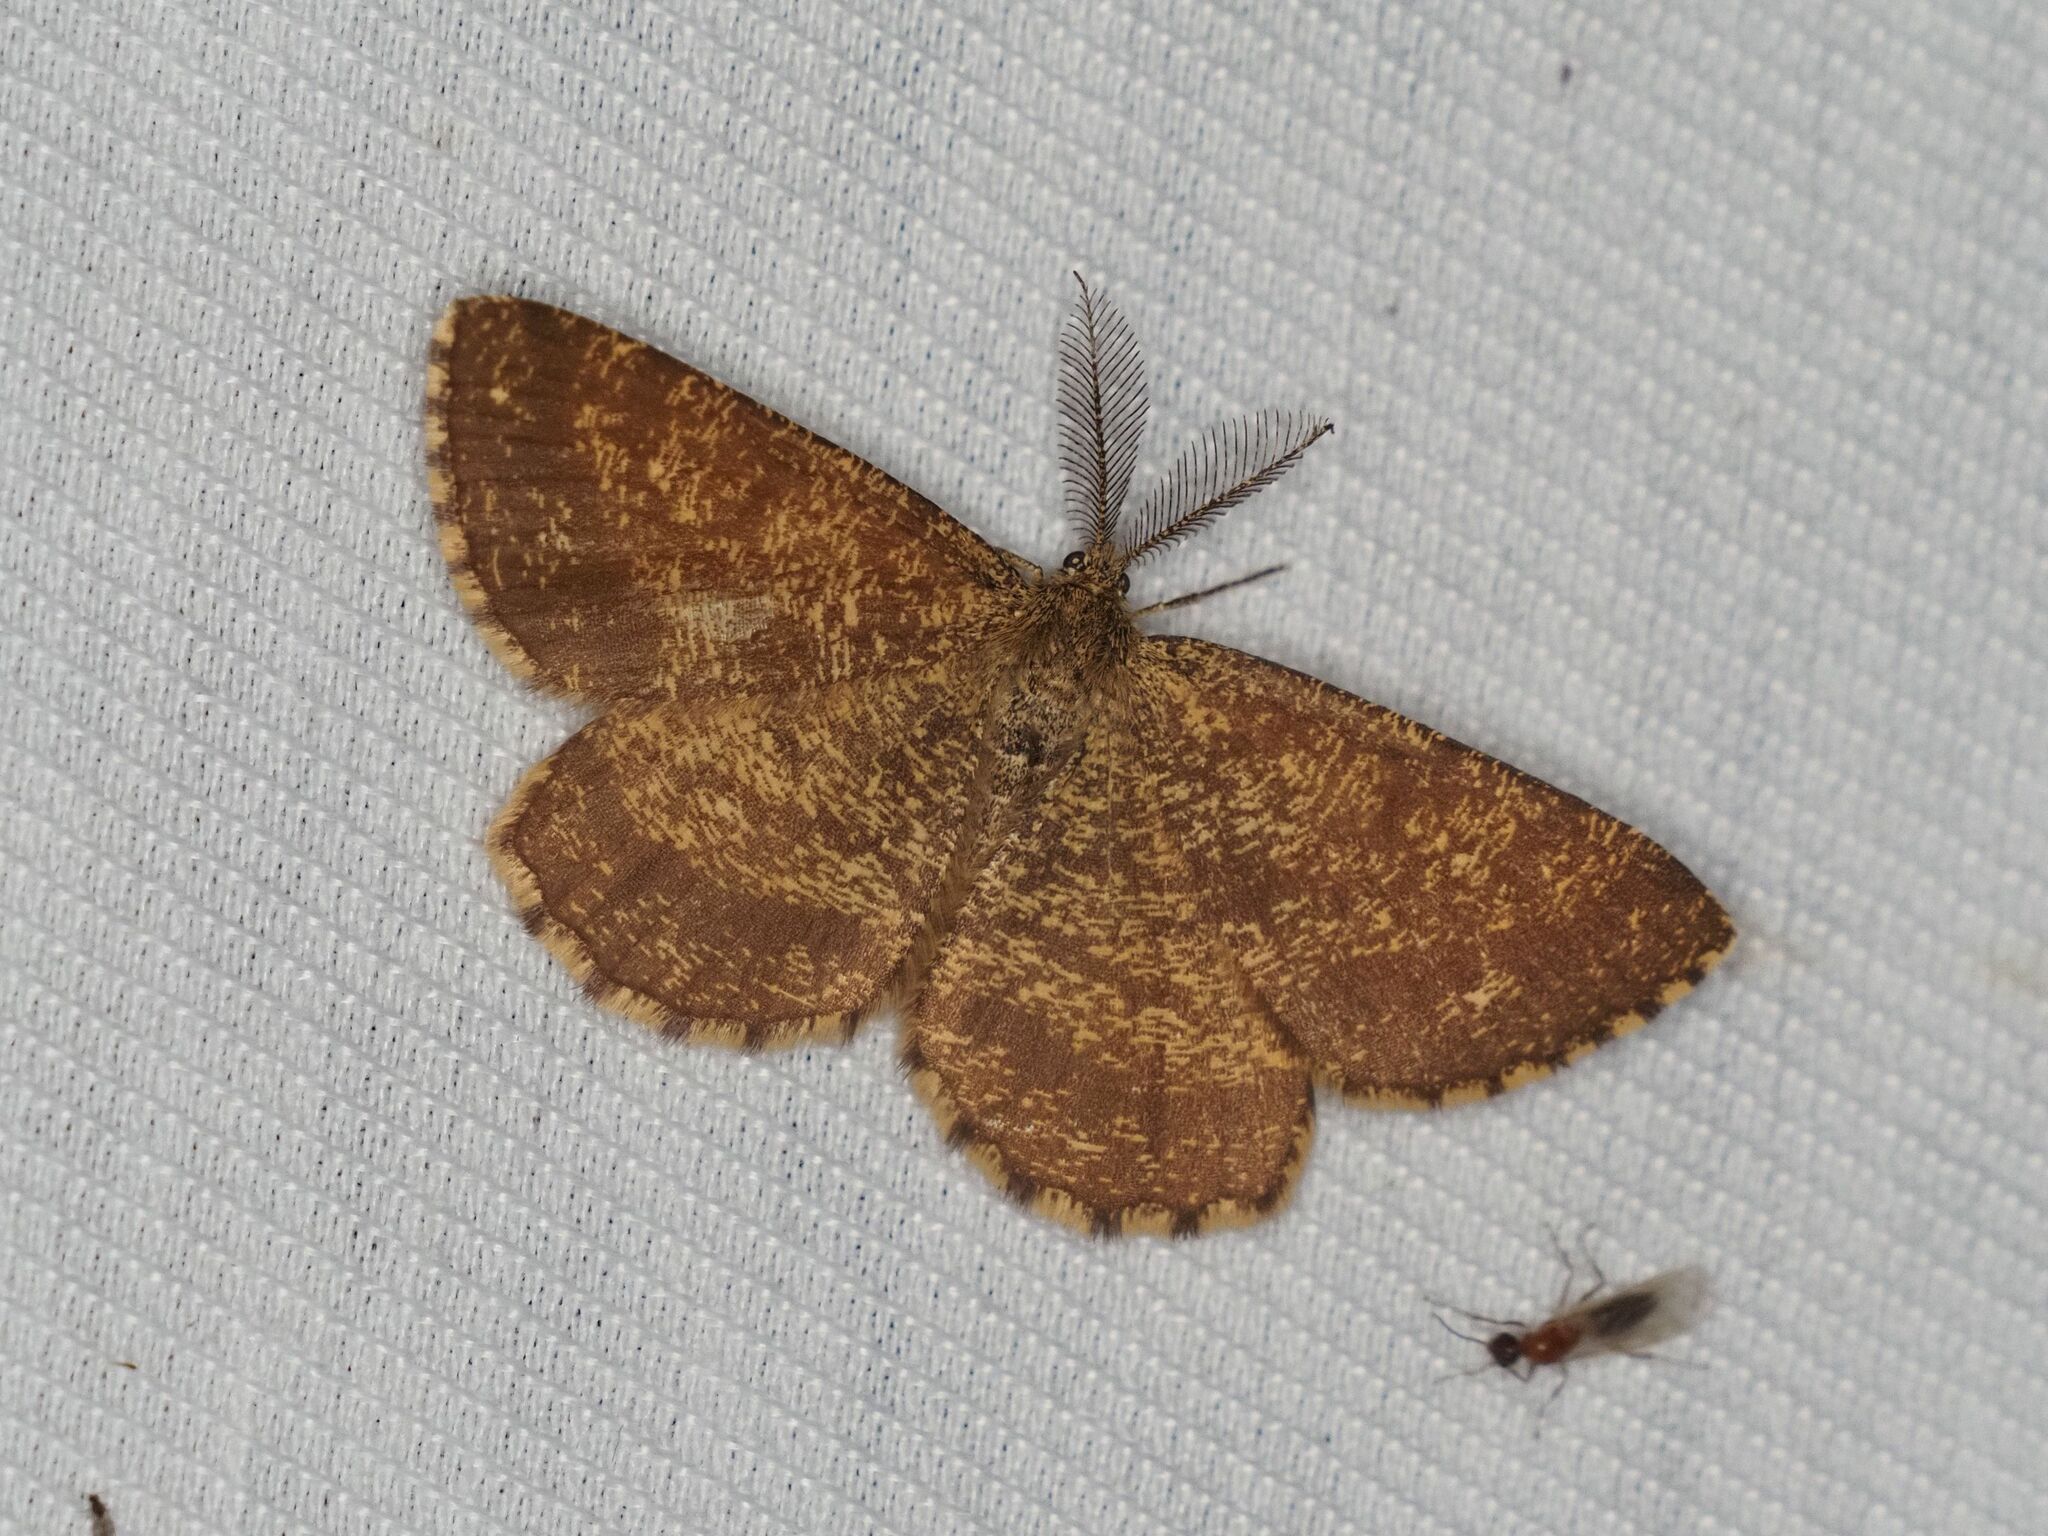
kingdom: Animalia
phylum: Arthropoda
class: Insecta
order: Lepidoptera
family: Geometridae
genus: Ematurga
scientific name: Ematurga atomaria
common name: Common heath
